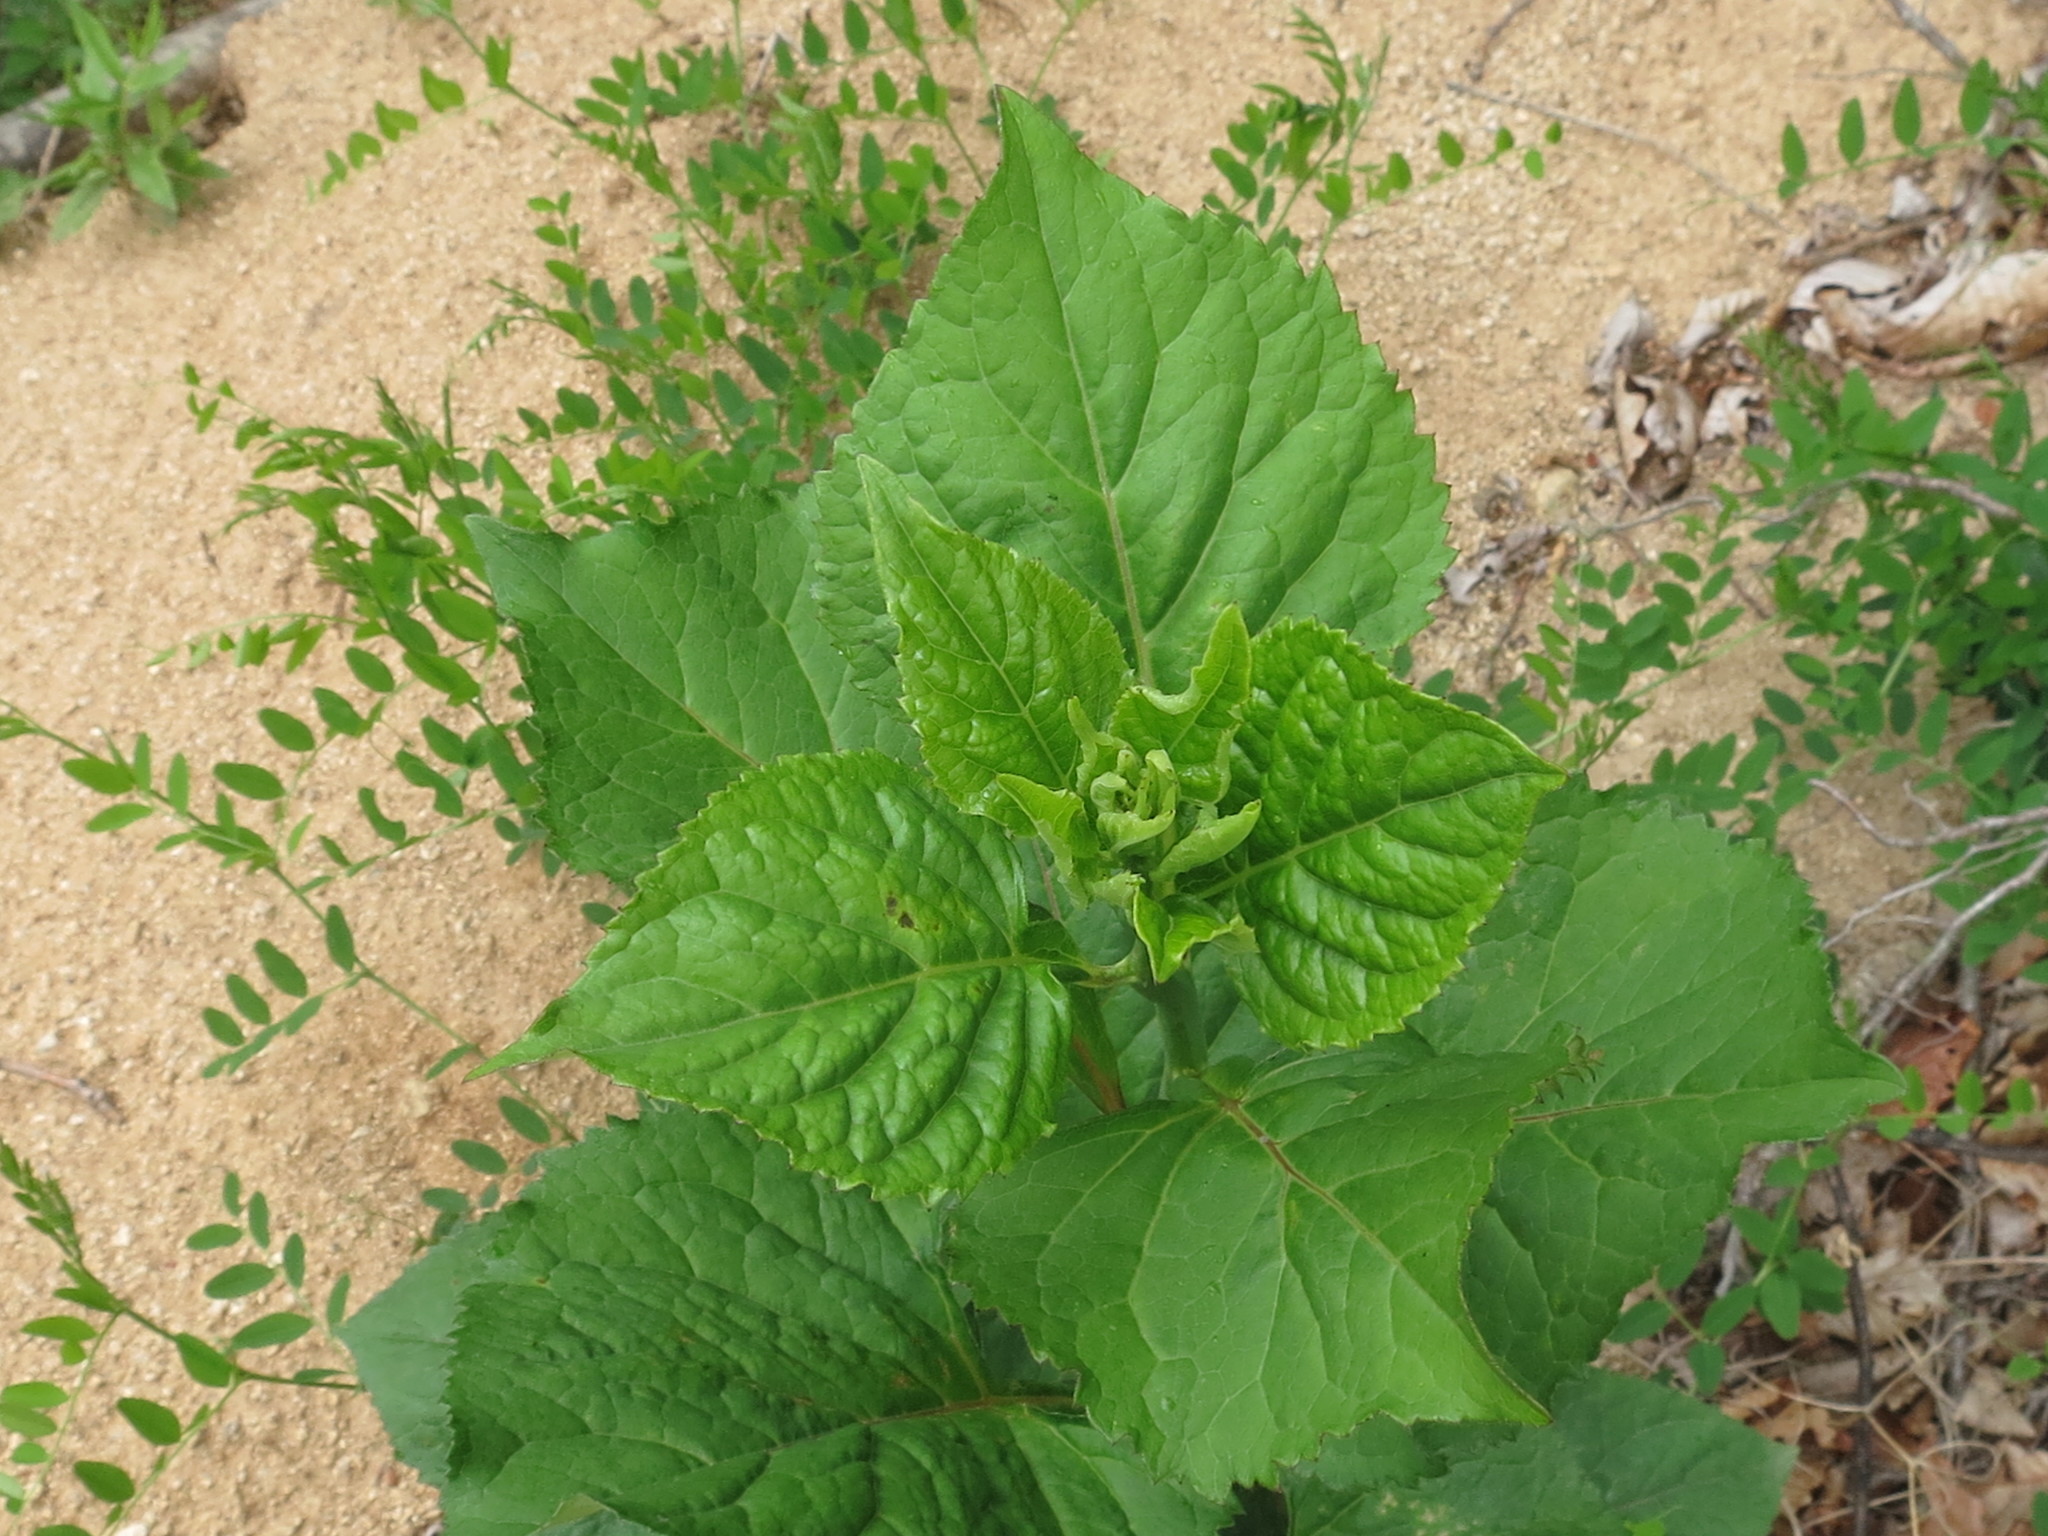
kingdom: Plantae
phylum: Tracheophyta
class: Magnoliopsida
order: Asterales
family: Asteraceae
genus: Aster
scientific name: Aster scaber
